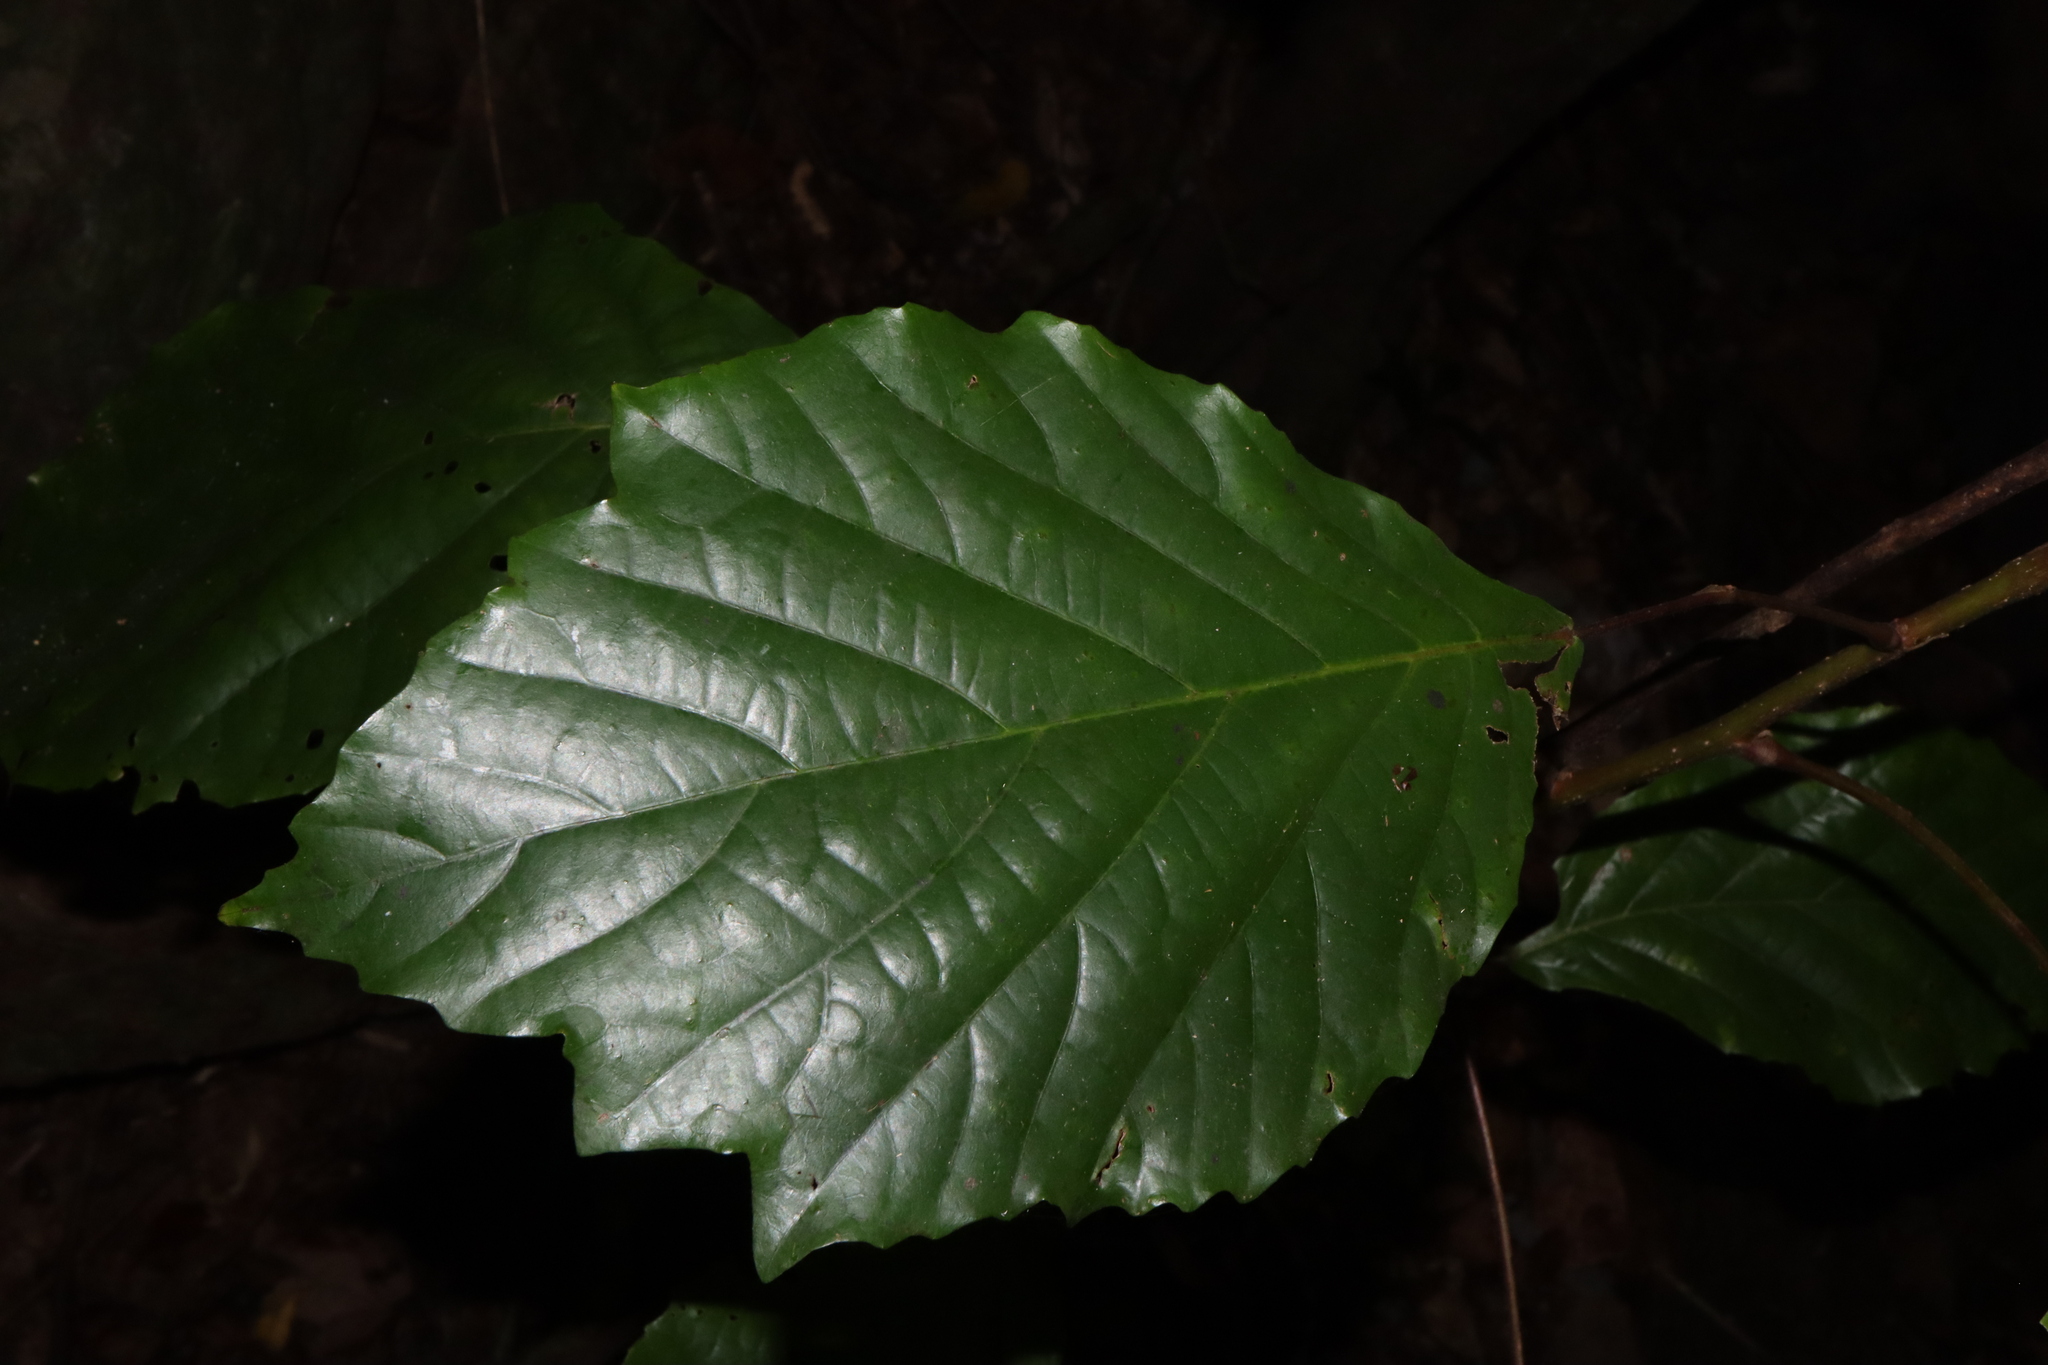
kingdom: Plantae
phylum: Tracheophyta
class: Magnoliopsida
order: Oxalidales
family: Elaeocarpaceae
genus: Sloanea
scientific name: Sloanea langii
